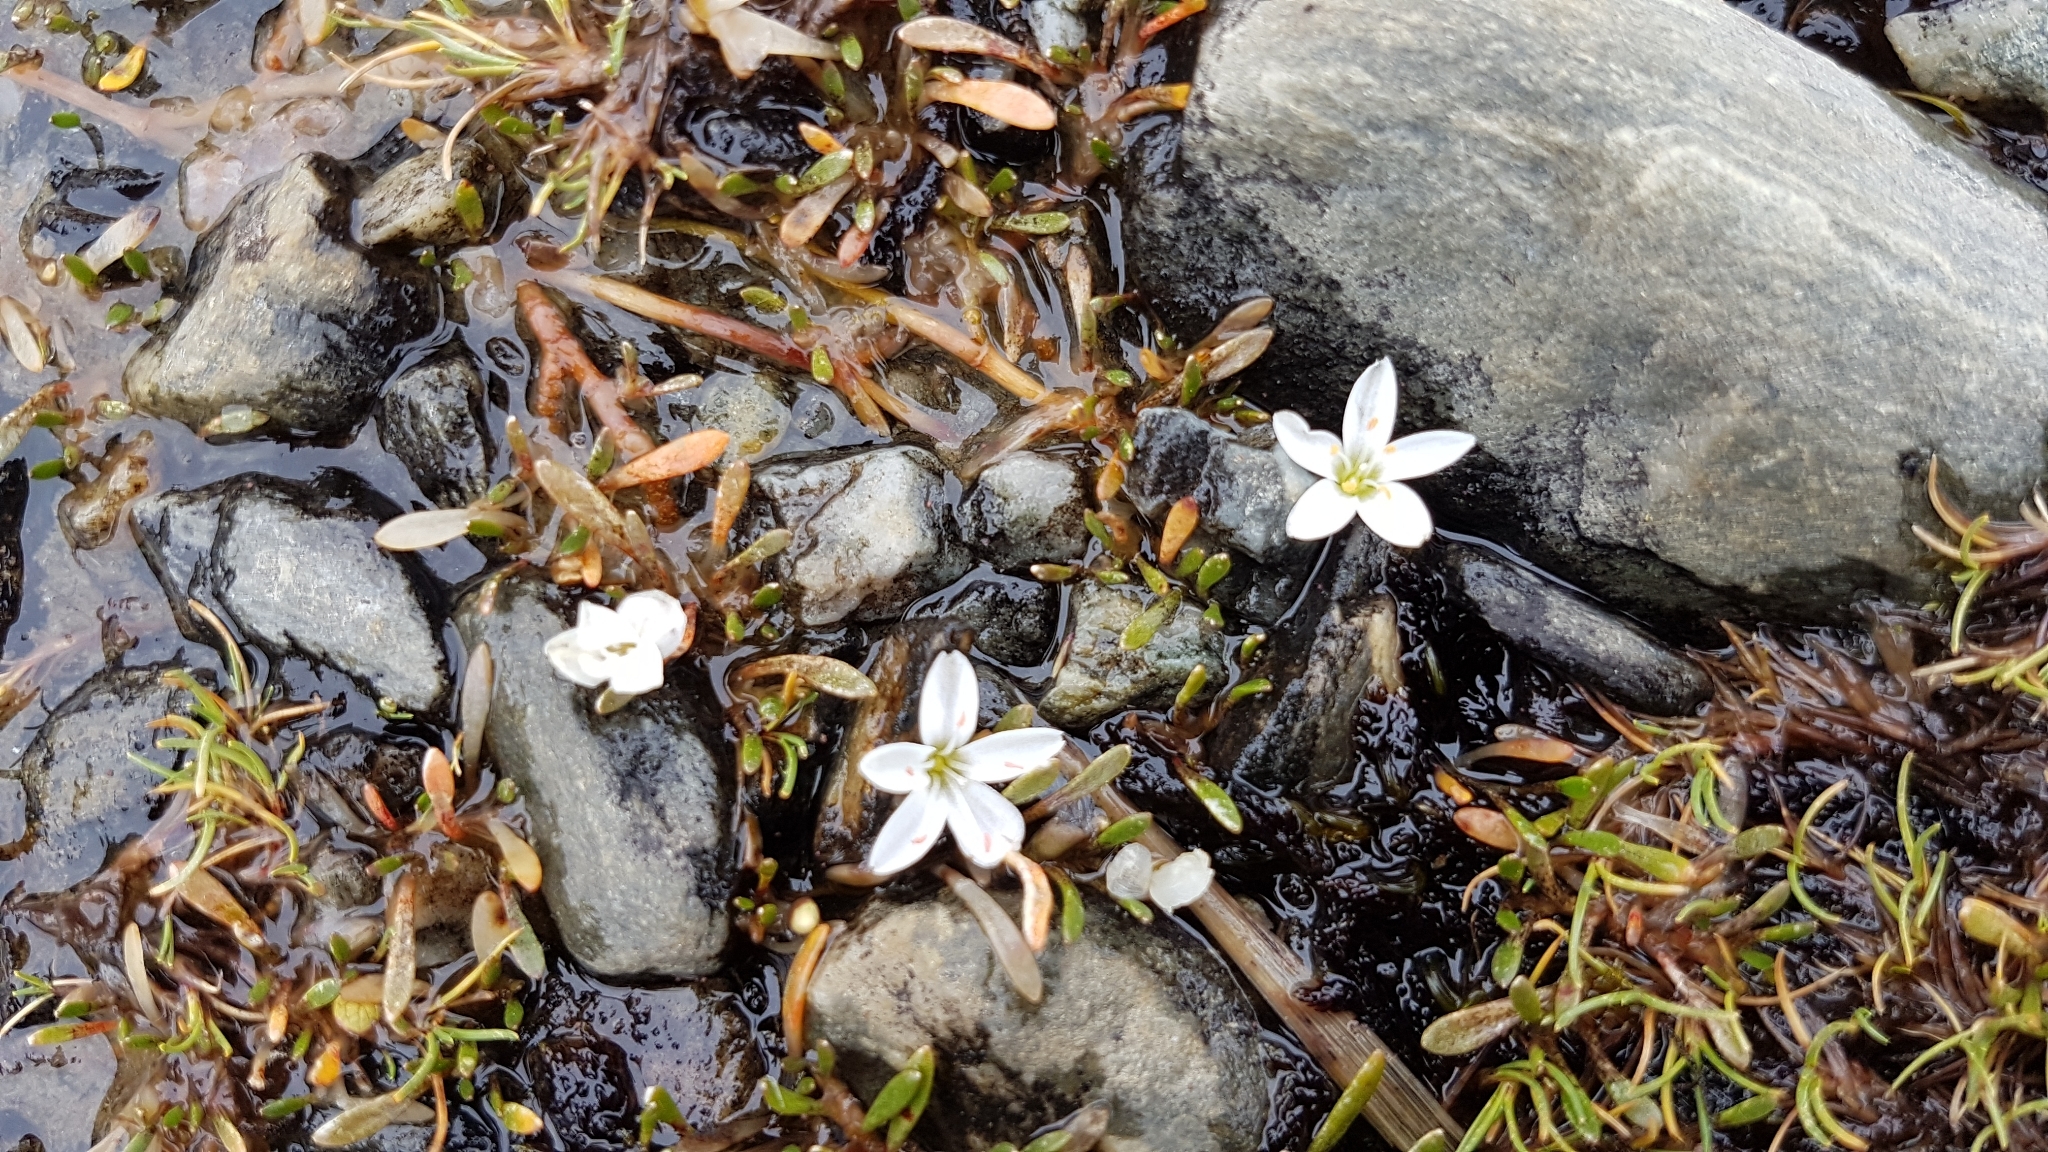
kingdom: Plantae
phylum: Tracheophyta
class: Magnoliopsida
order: Caryophyllales
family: Montiaceae
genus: Montia
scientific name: Montia sessiliflora
